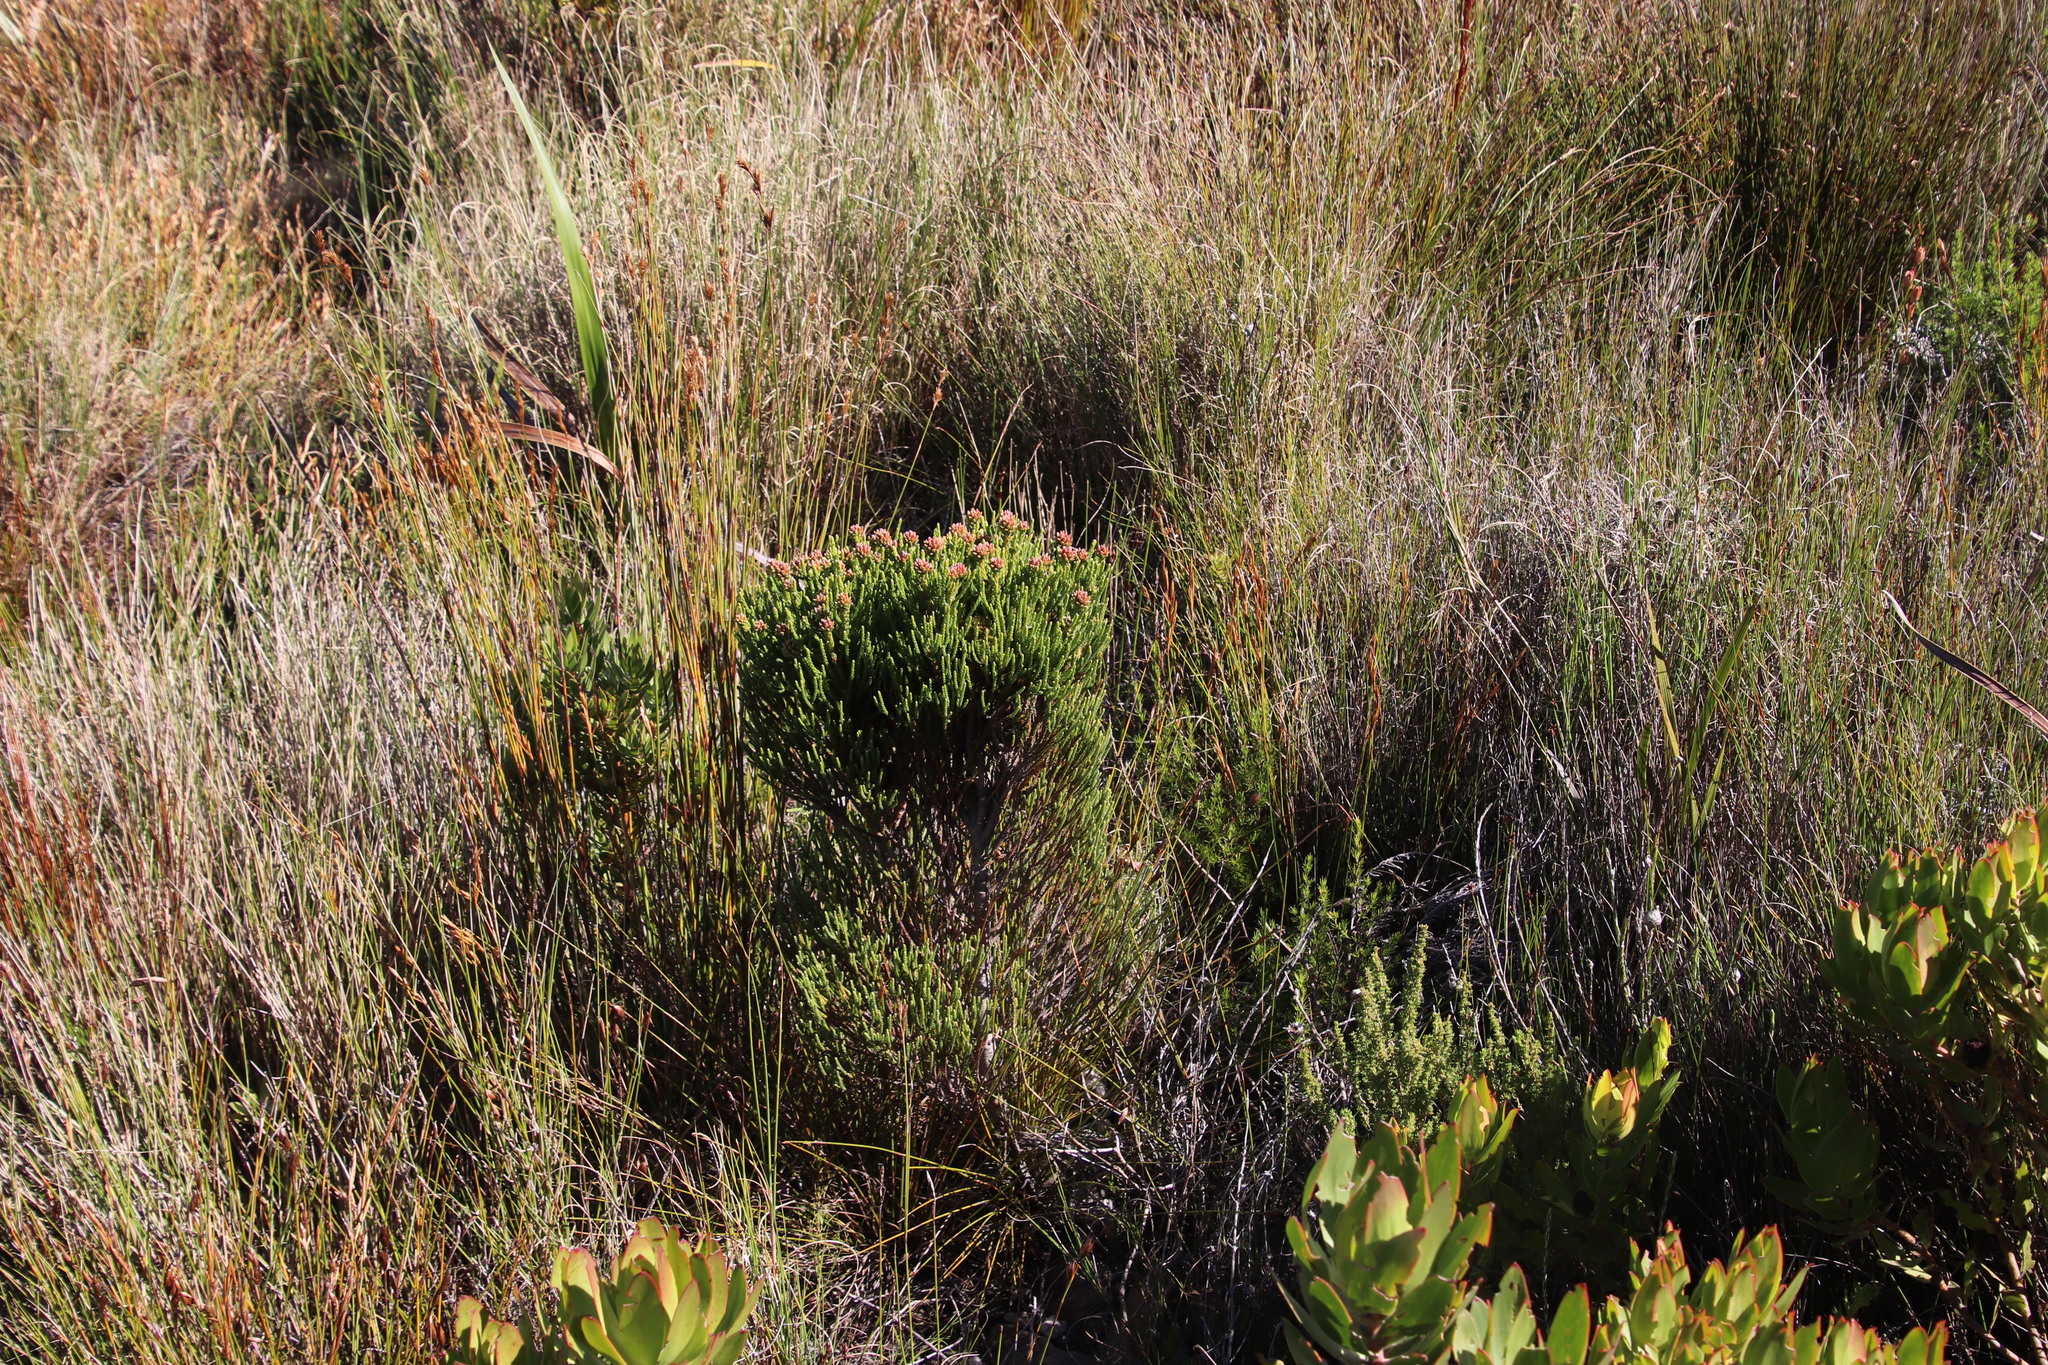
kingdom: Plantae
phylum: Tracheophyta
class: Magnoliopsida
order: Bruniales
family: Bruniaceae
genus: Brunia
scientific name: Brunia fragarioides
